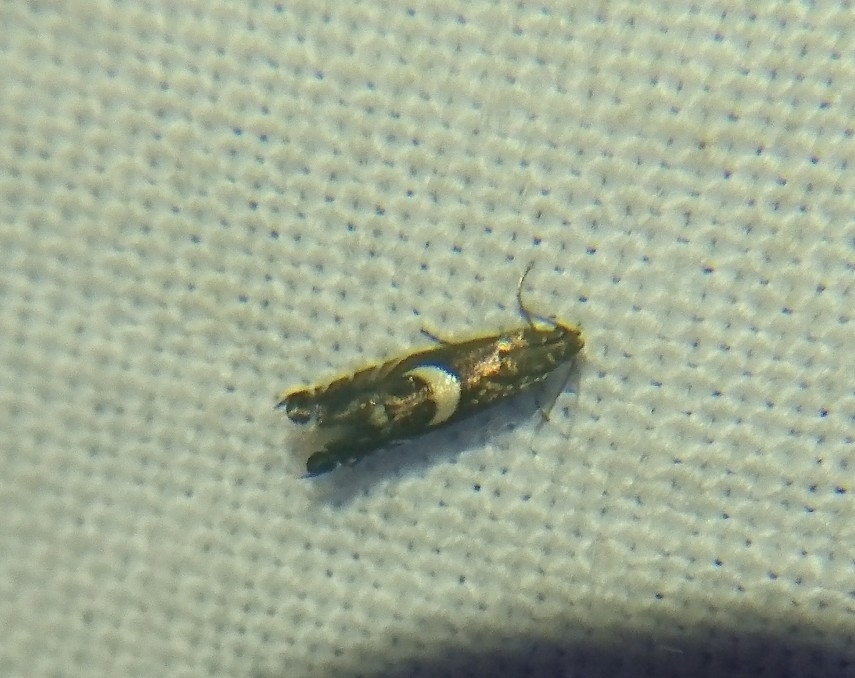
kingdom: Animalia
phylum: Arthropoda
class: Insecta
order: Lepidoptera
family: Glyphipterigidae
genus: Glyphipterix
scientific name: Glyphipterix Diploschizia impigritella
